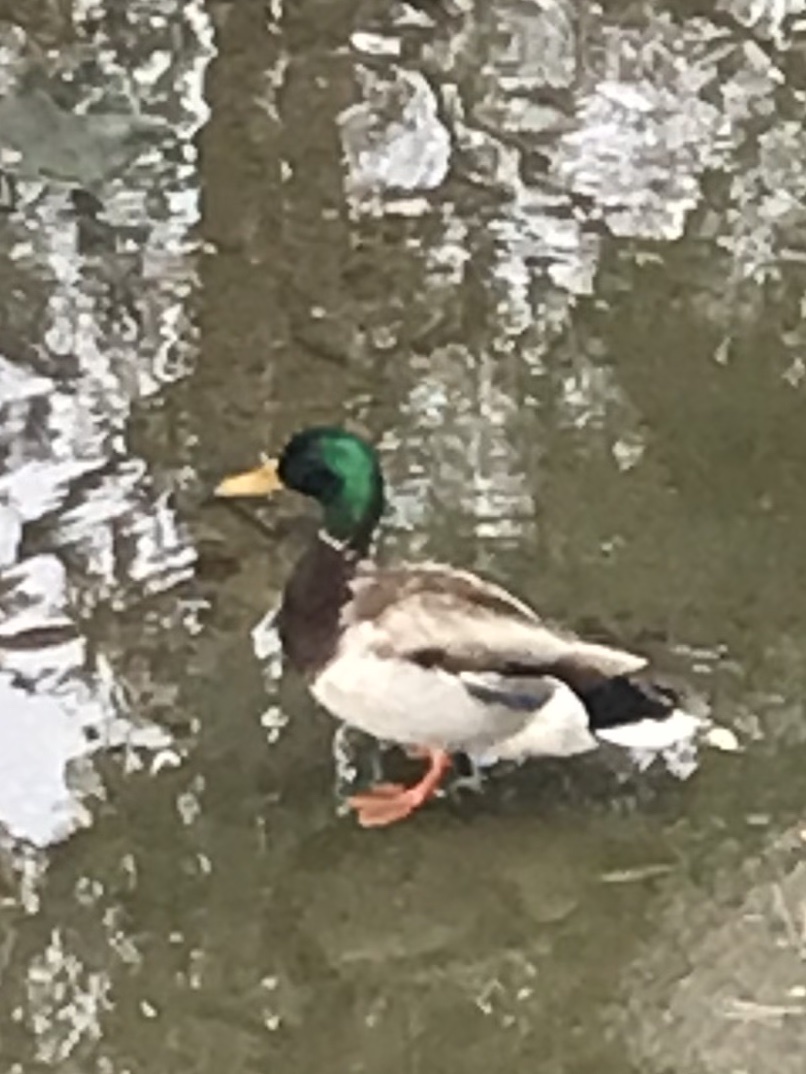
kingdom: Animalia
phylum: Chordata
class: Aves
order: Anseriformes
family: Anatidae
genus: Anas
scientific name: Anas platyrhynchos
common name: Mallard
